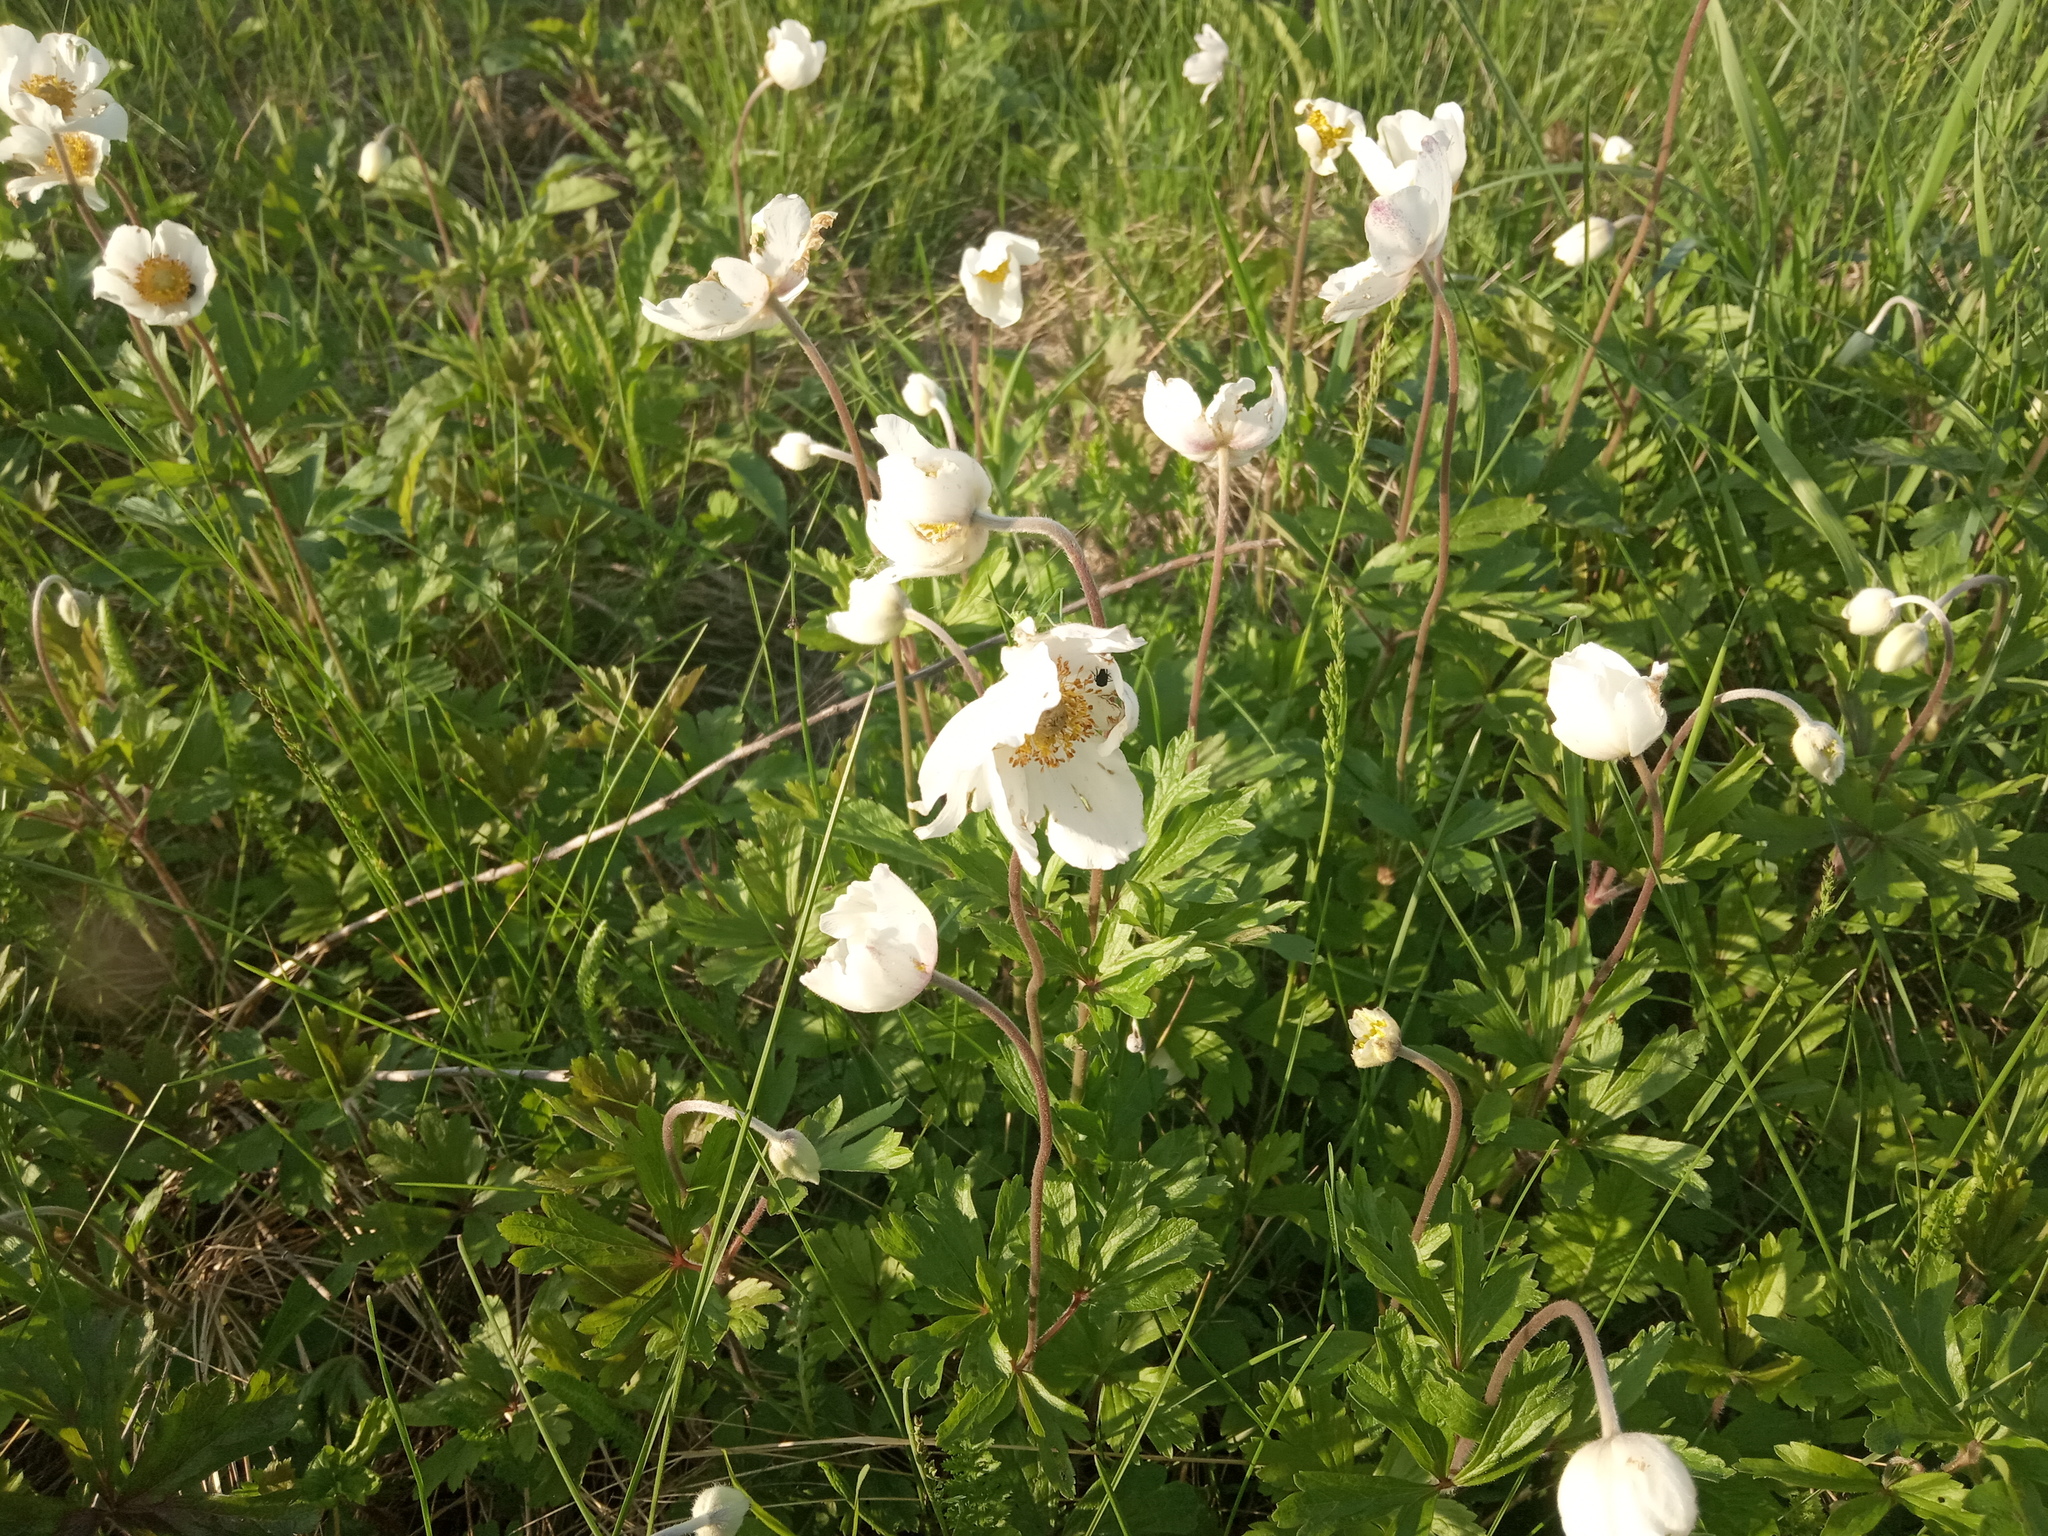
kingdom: Plantae
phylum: Tracheophyta
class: Magnoliopsida
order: Ranunculales
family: Ranunculaceae
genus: Anemone
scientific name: Anemone sylvestris
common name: Snowdrop anemone
